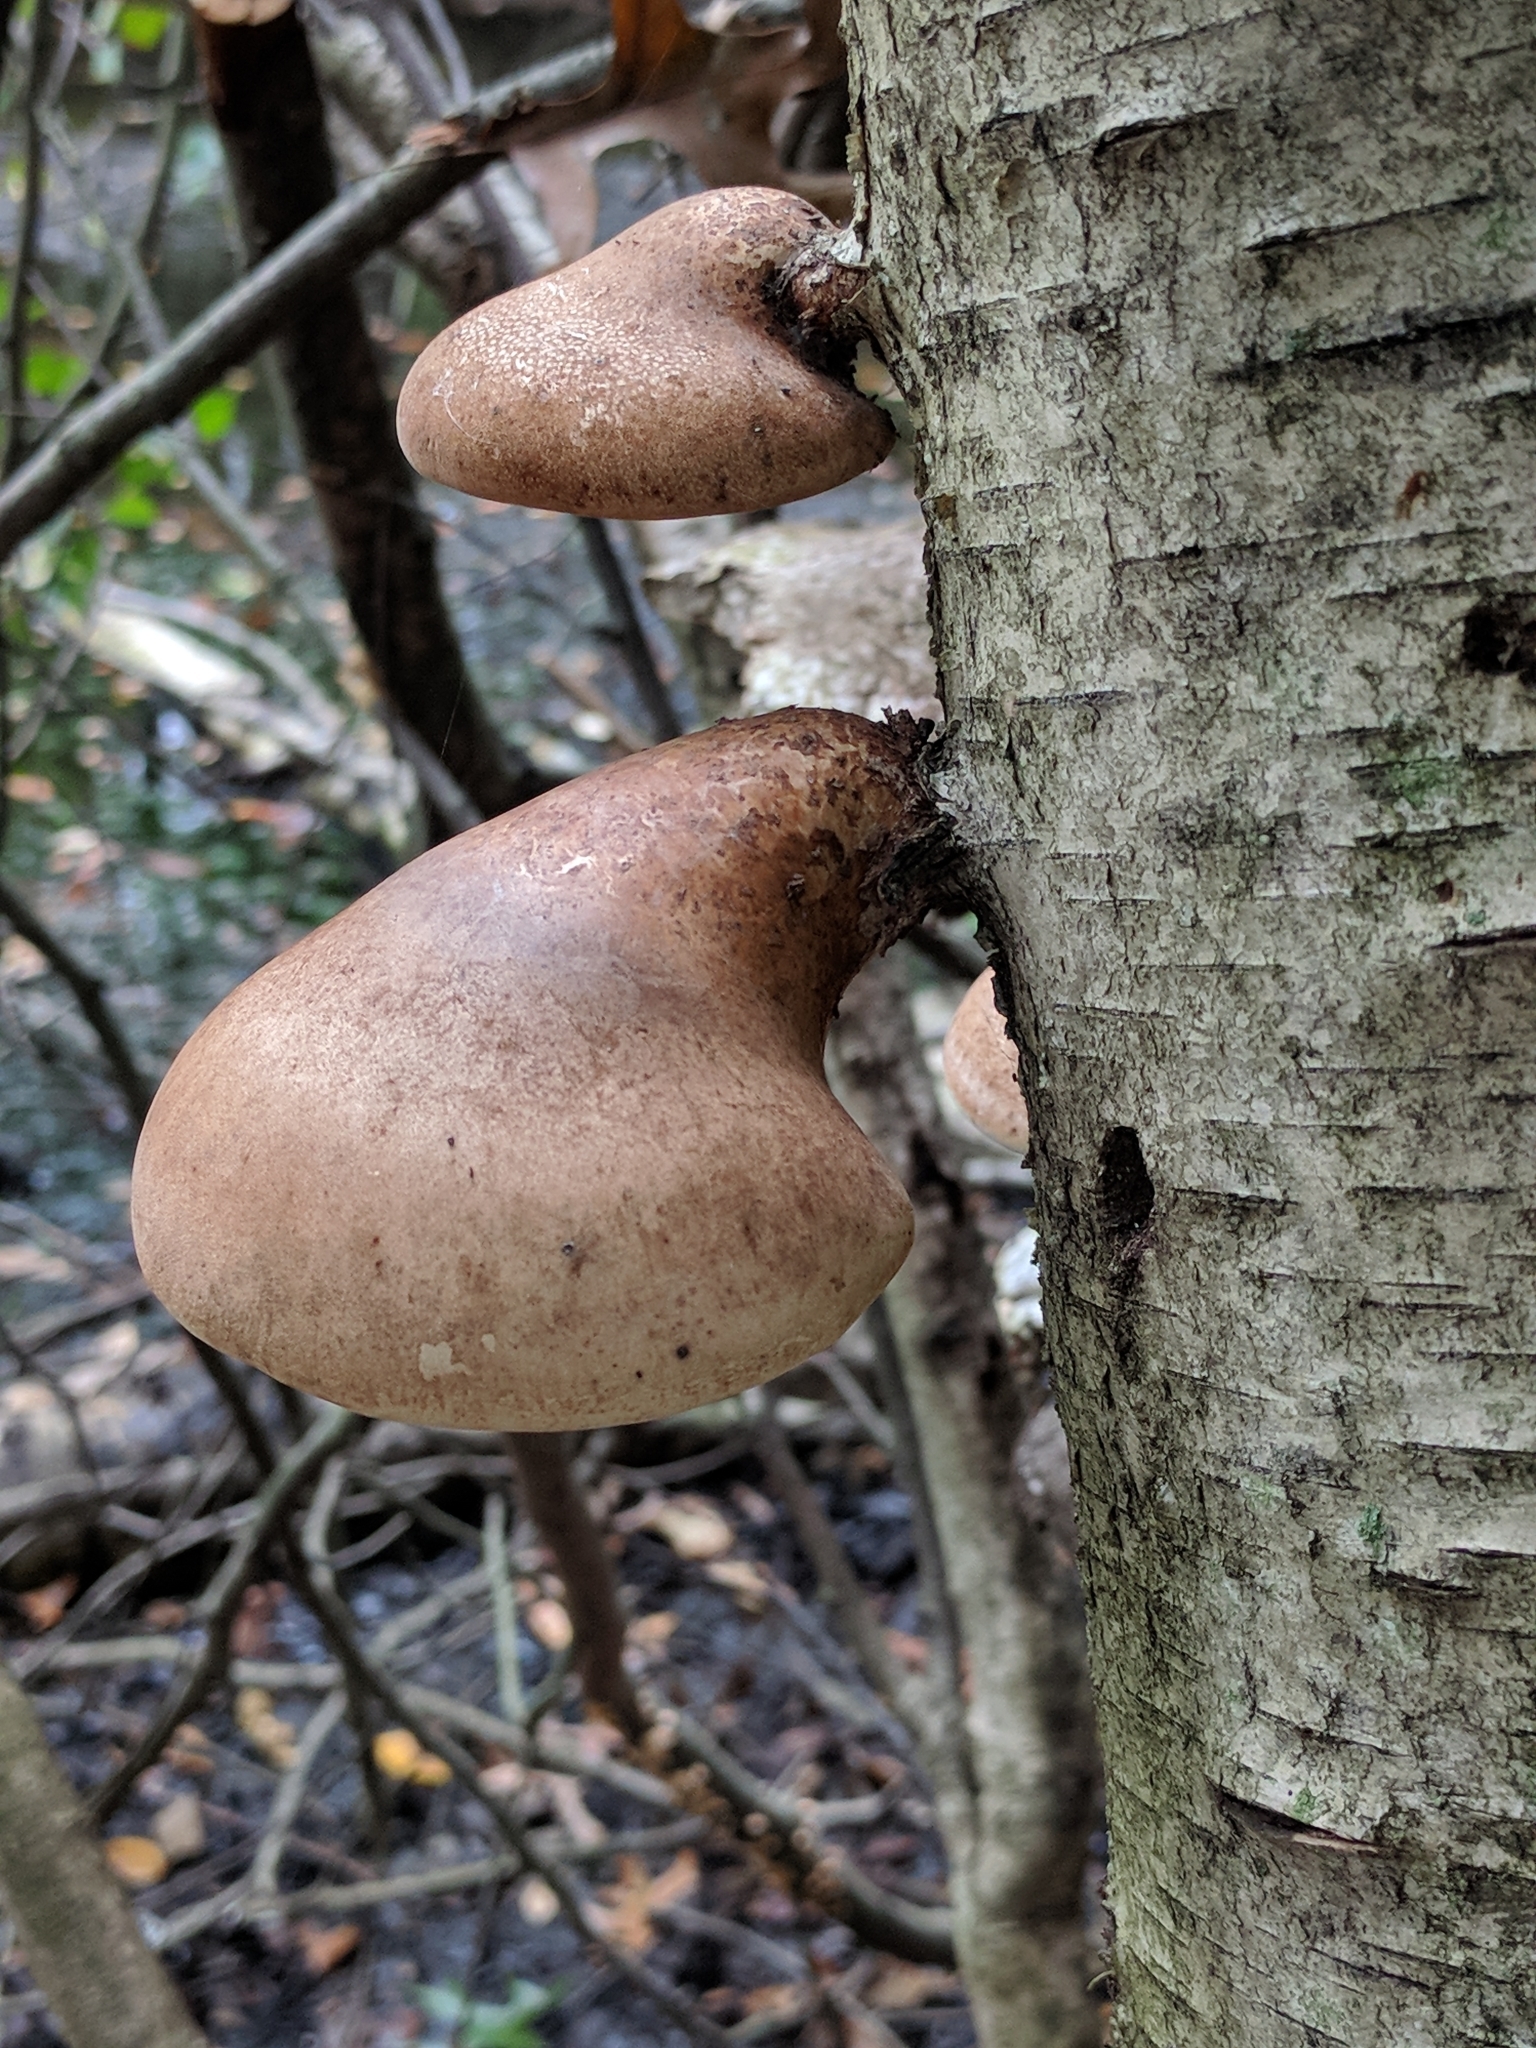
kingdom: Fungi
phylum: Basidiomycota
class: Agaricomycetes
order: Polyporales
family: Fomitopsidaceae
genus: Fomitopsis
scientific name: Fomitopsis betulina
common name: Birch polypore
